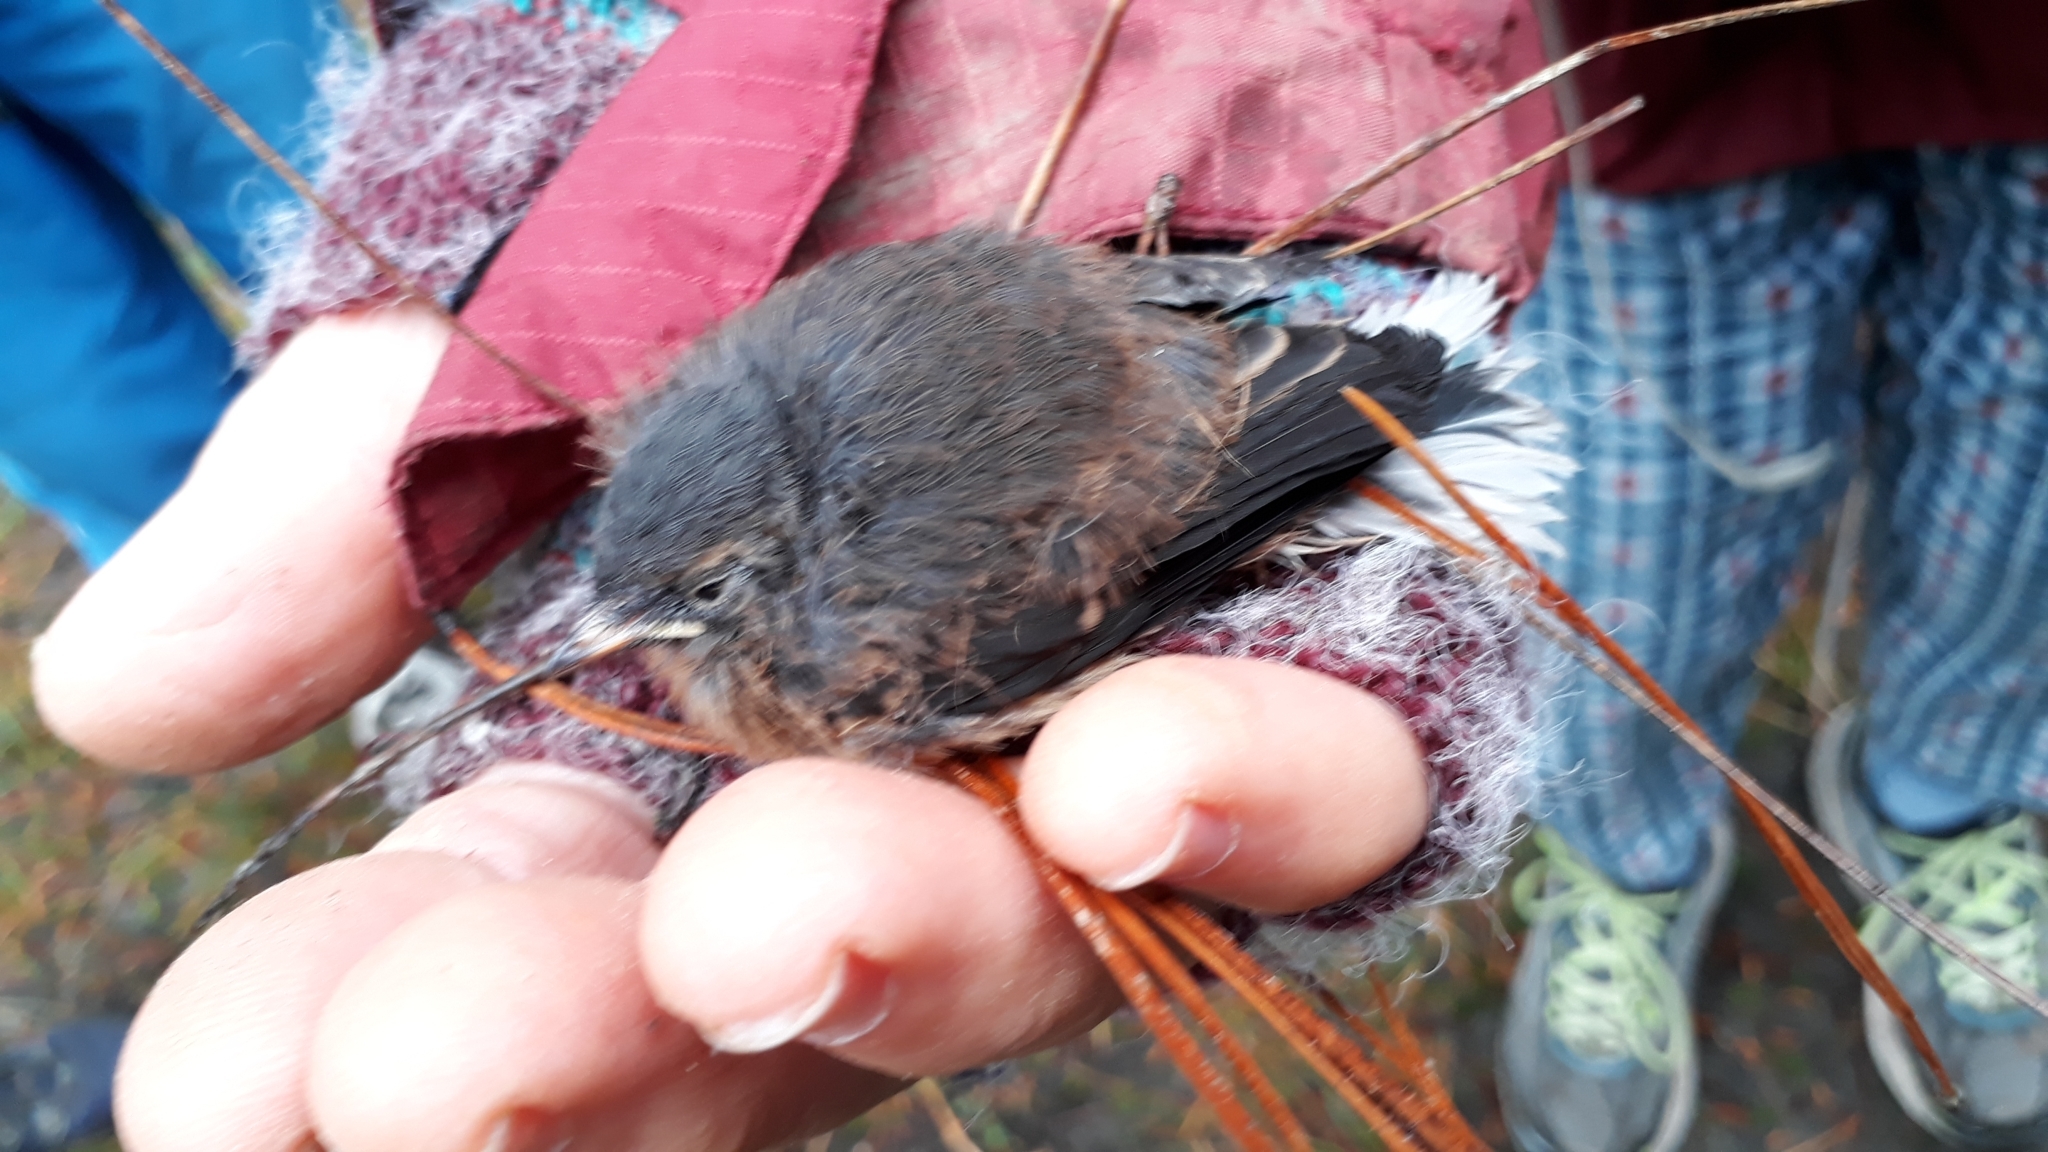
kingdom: Animalia
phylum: Chordata
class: Aves
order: Passeriformes
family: Turdidae
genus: Turdus
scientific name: Turdus merula
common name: Common blackbird
